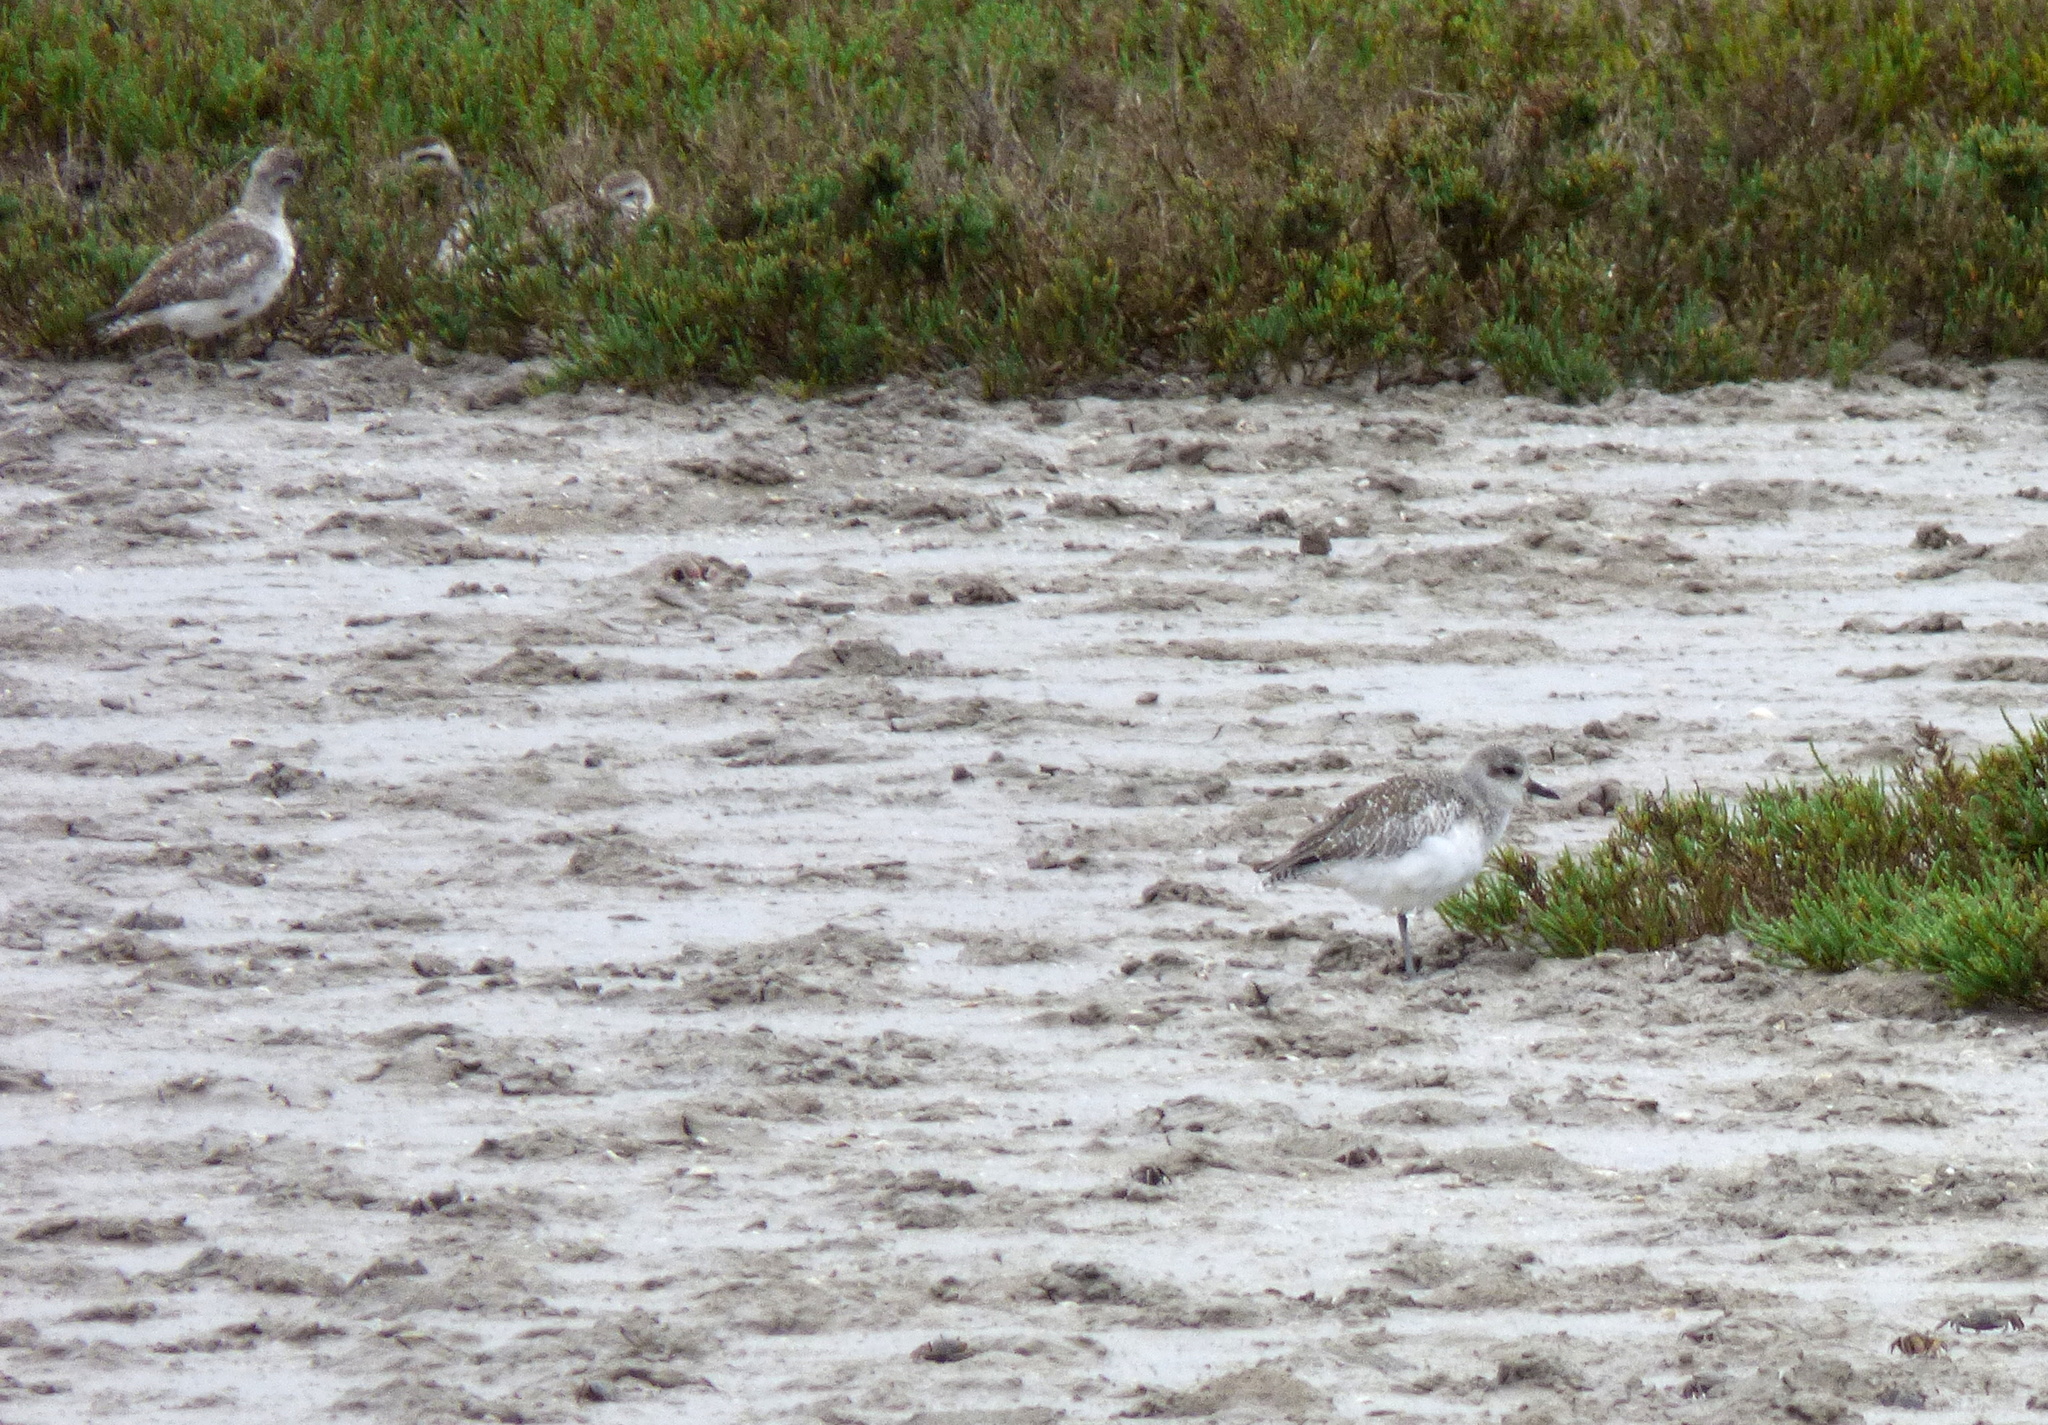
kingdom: Animalia
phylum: Chordata
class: Aves
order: Charadriiformes
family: Charadriidae
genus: Pluvialis
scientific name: Pluvialis squatarola
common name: Grey plover
